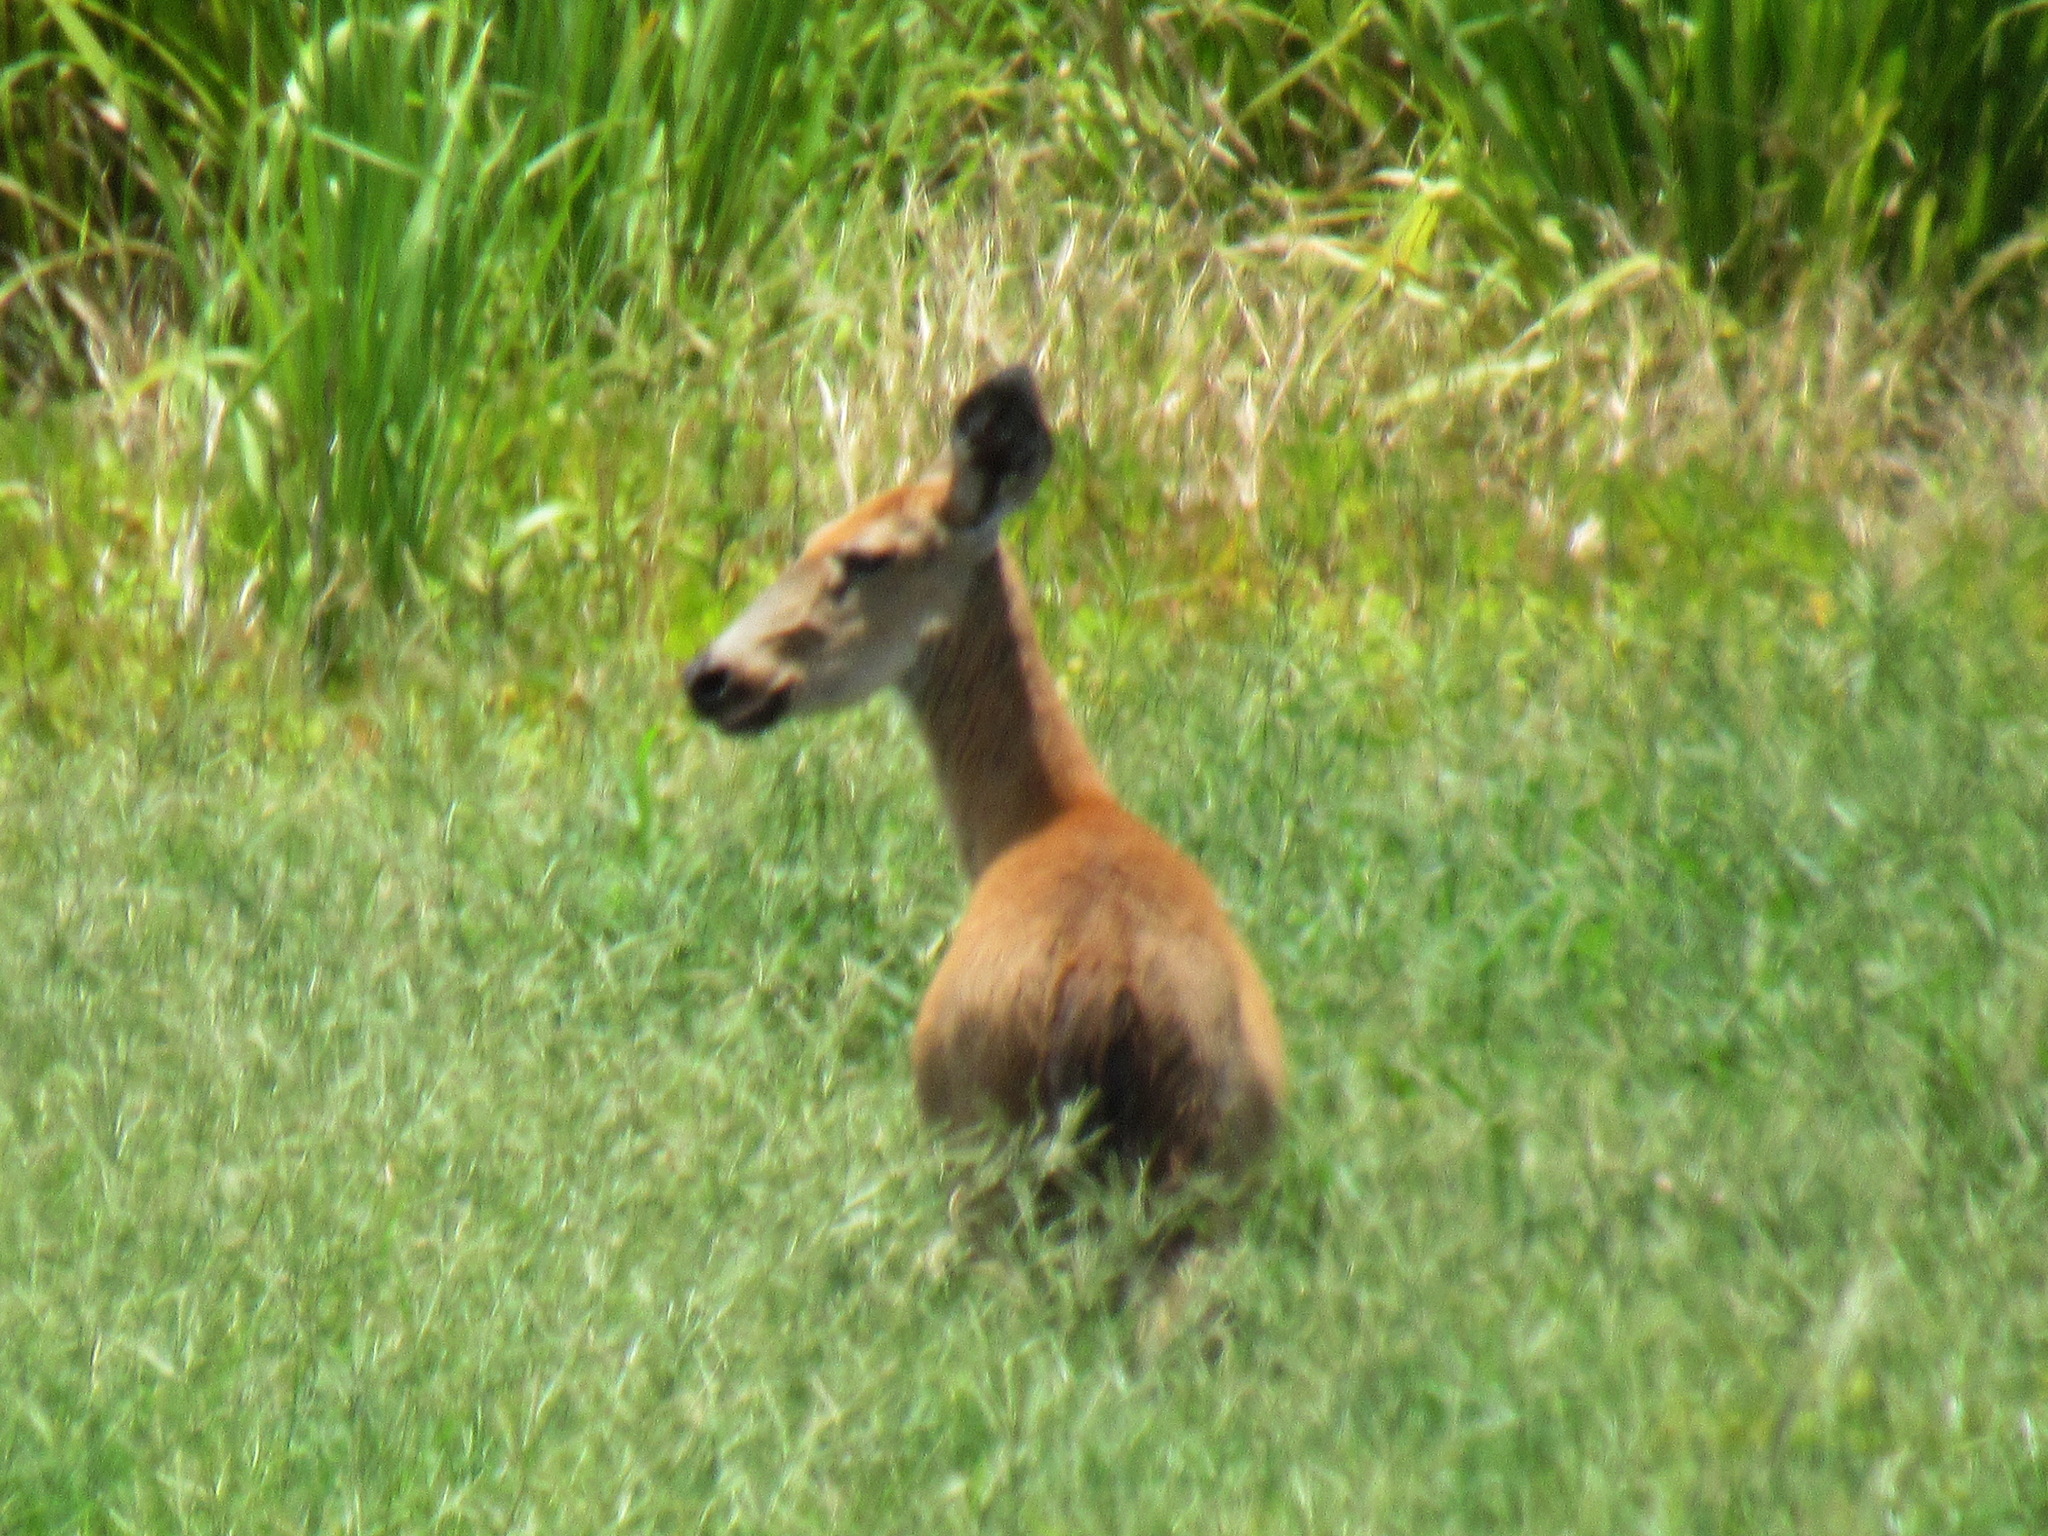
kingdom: Animalia
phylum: Chordata
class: Mammalia
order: Artiodactyla
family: Cervidae
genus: Blastocerus
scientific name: Blastocerus dichotomus
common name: Marsh deer
